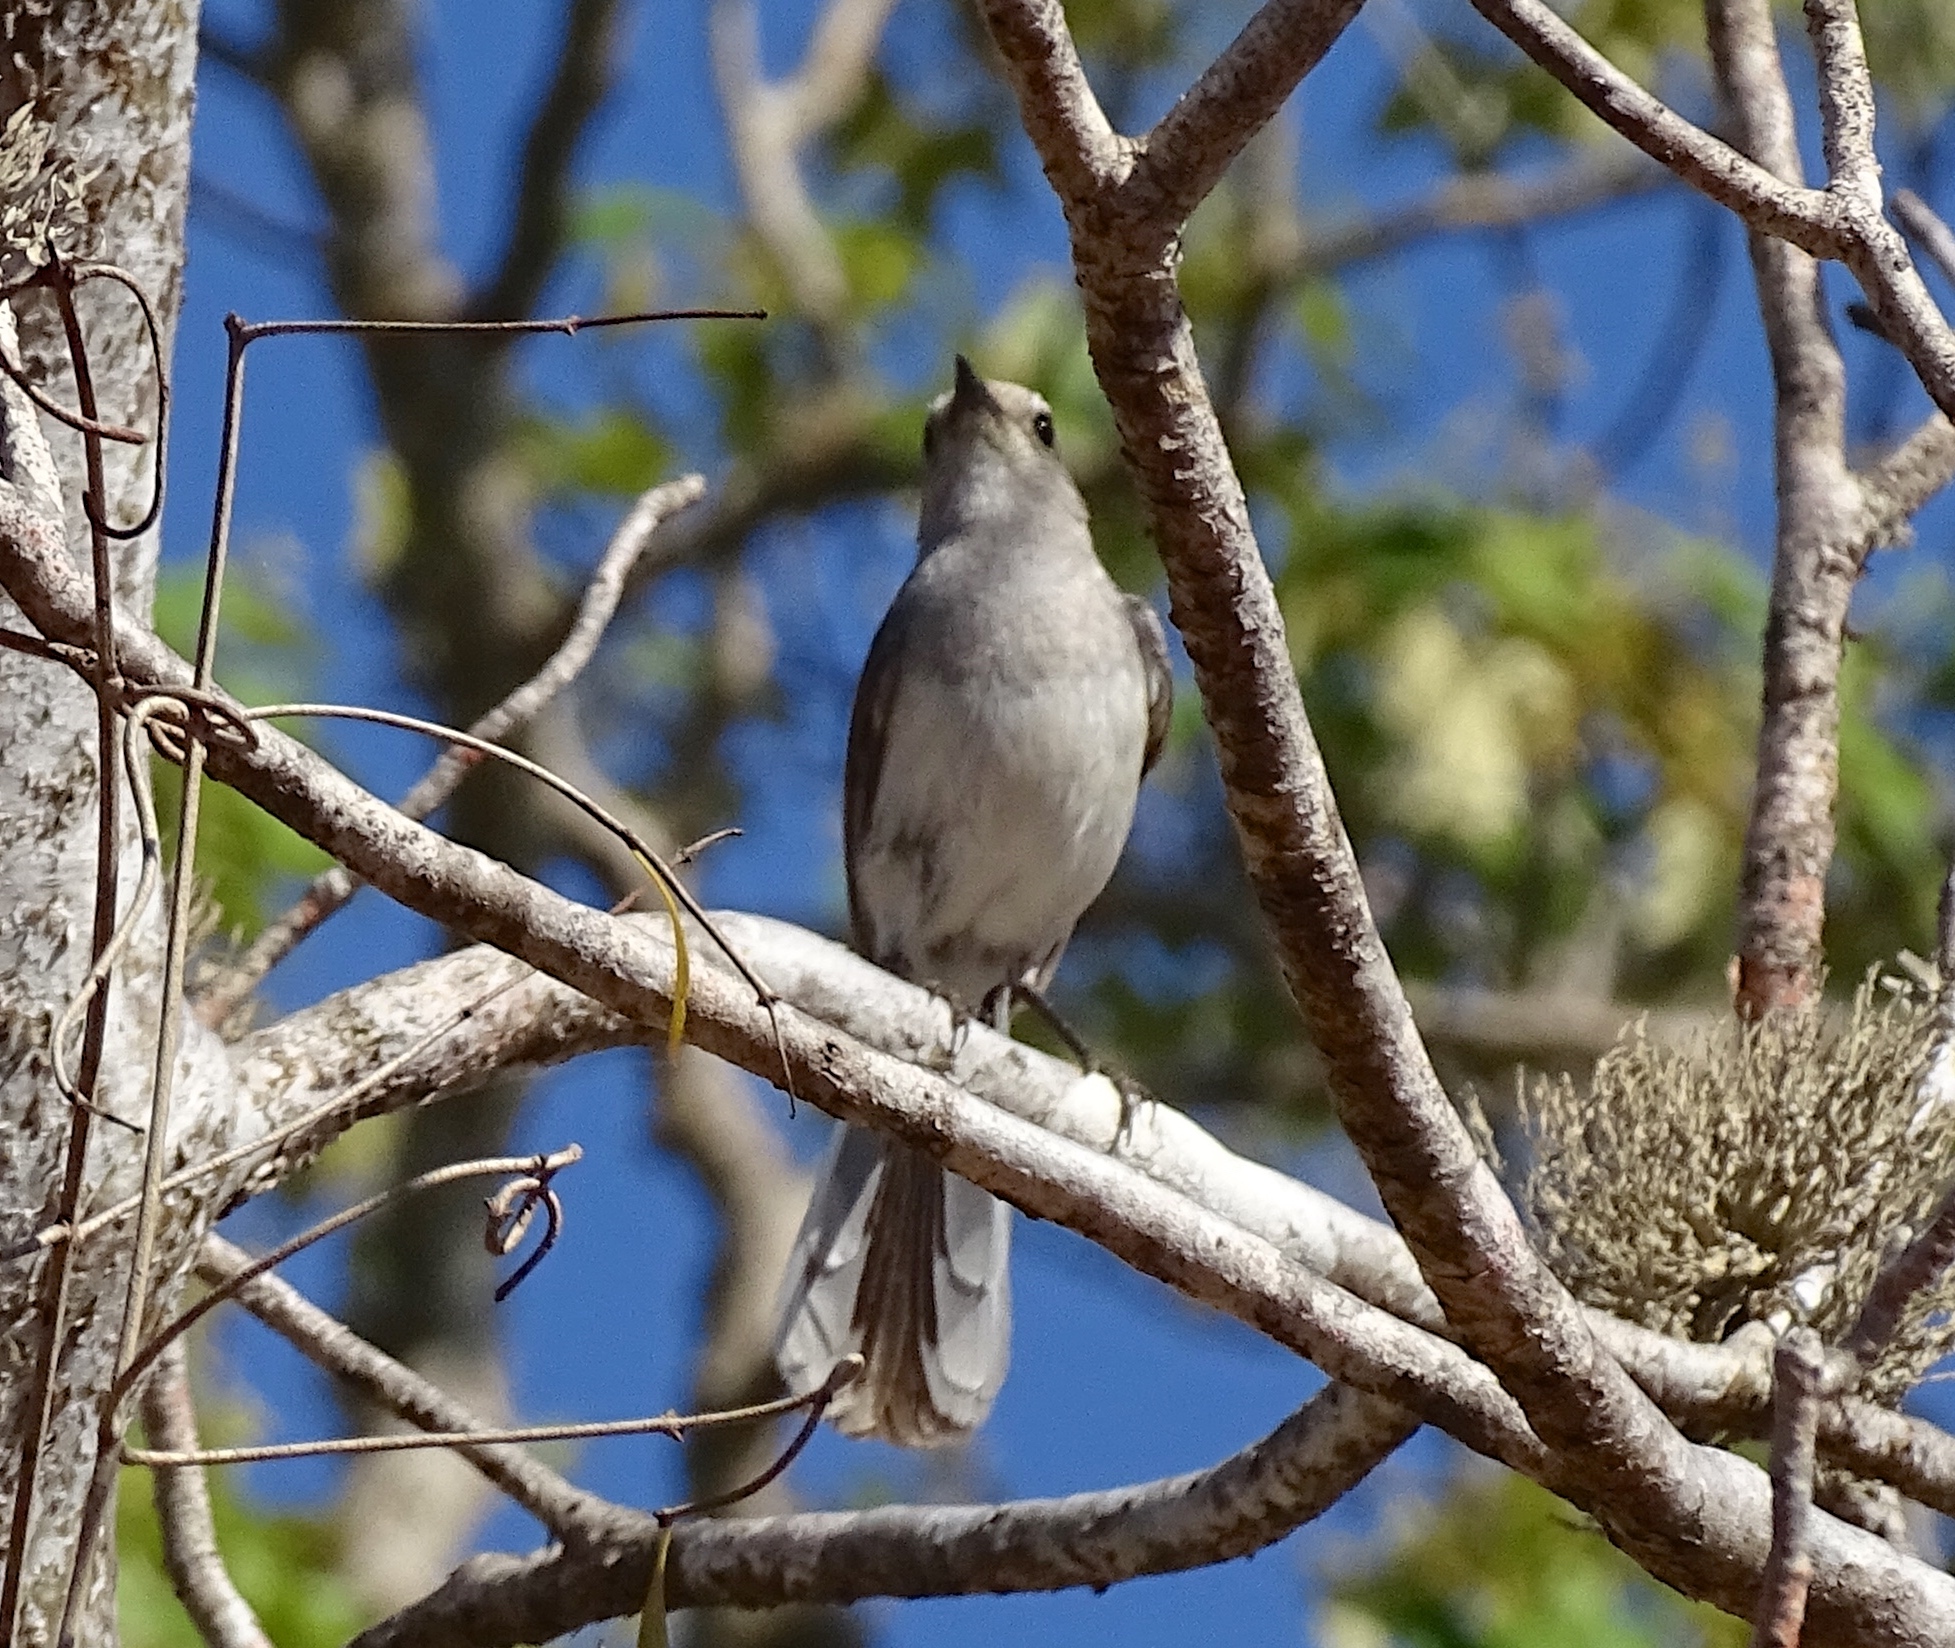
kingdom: Animalia
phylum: Chordata
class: Aves
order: Passeriformes
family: Muscicapidae
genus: Copsychus
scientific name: Copsychus albospecularis
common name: Madagascar magpie-robin
